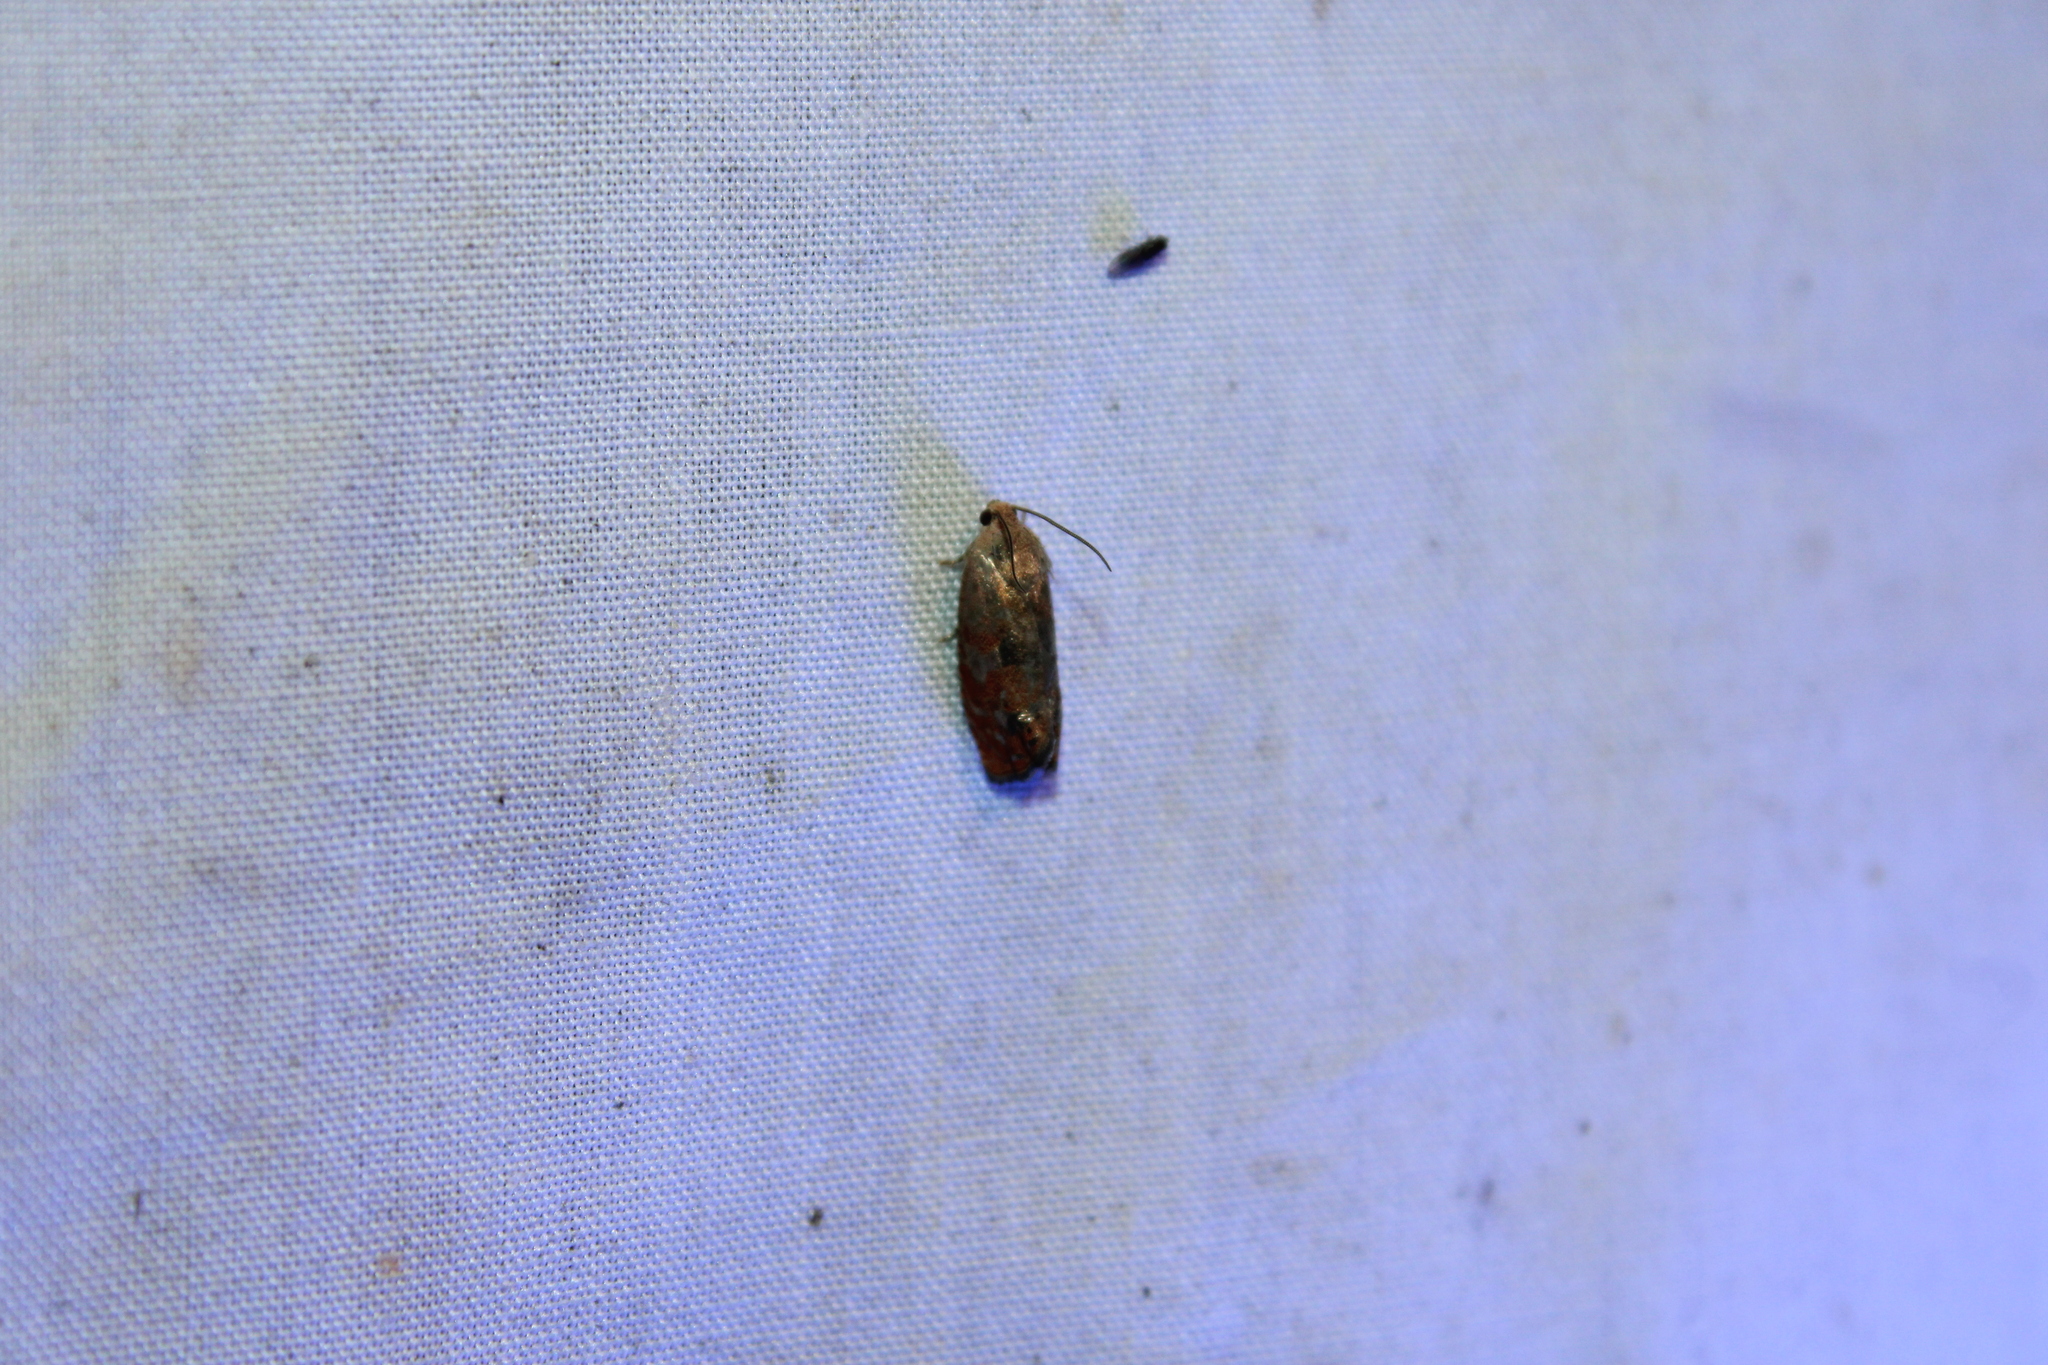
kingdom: Animalia
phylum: Arthropoda
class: Insecta
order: Lepidoptera
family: Tortricidae
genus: Cydia
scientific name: Cydia latiferreana
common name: Filbertworm moth
